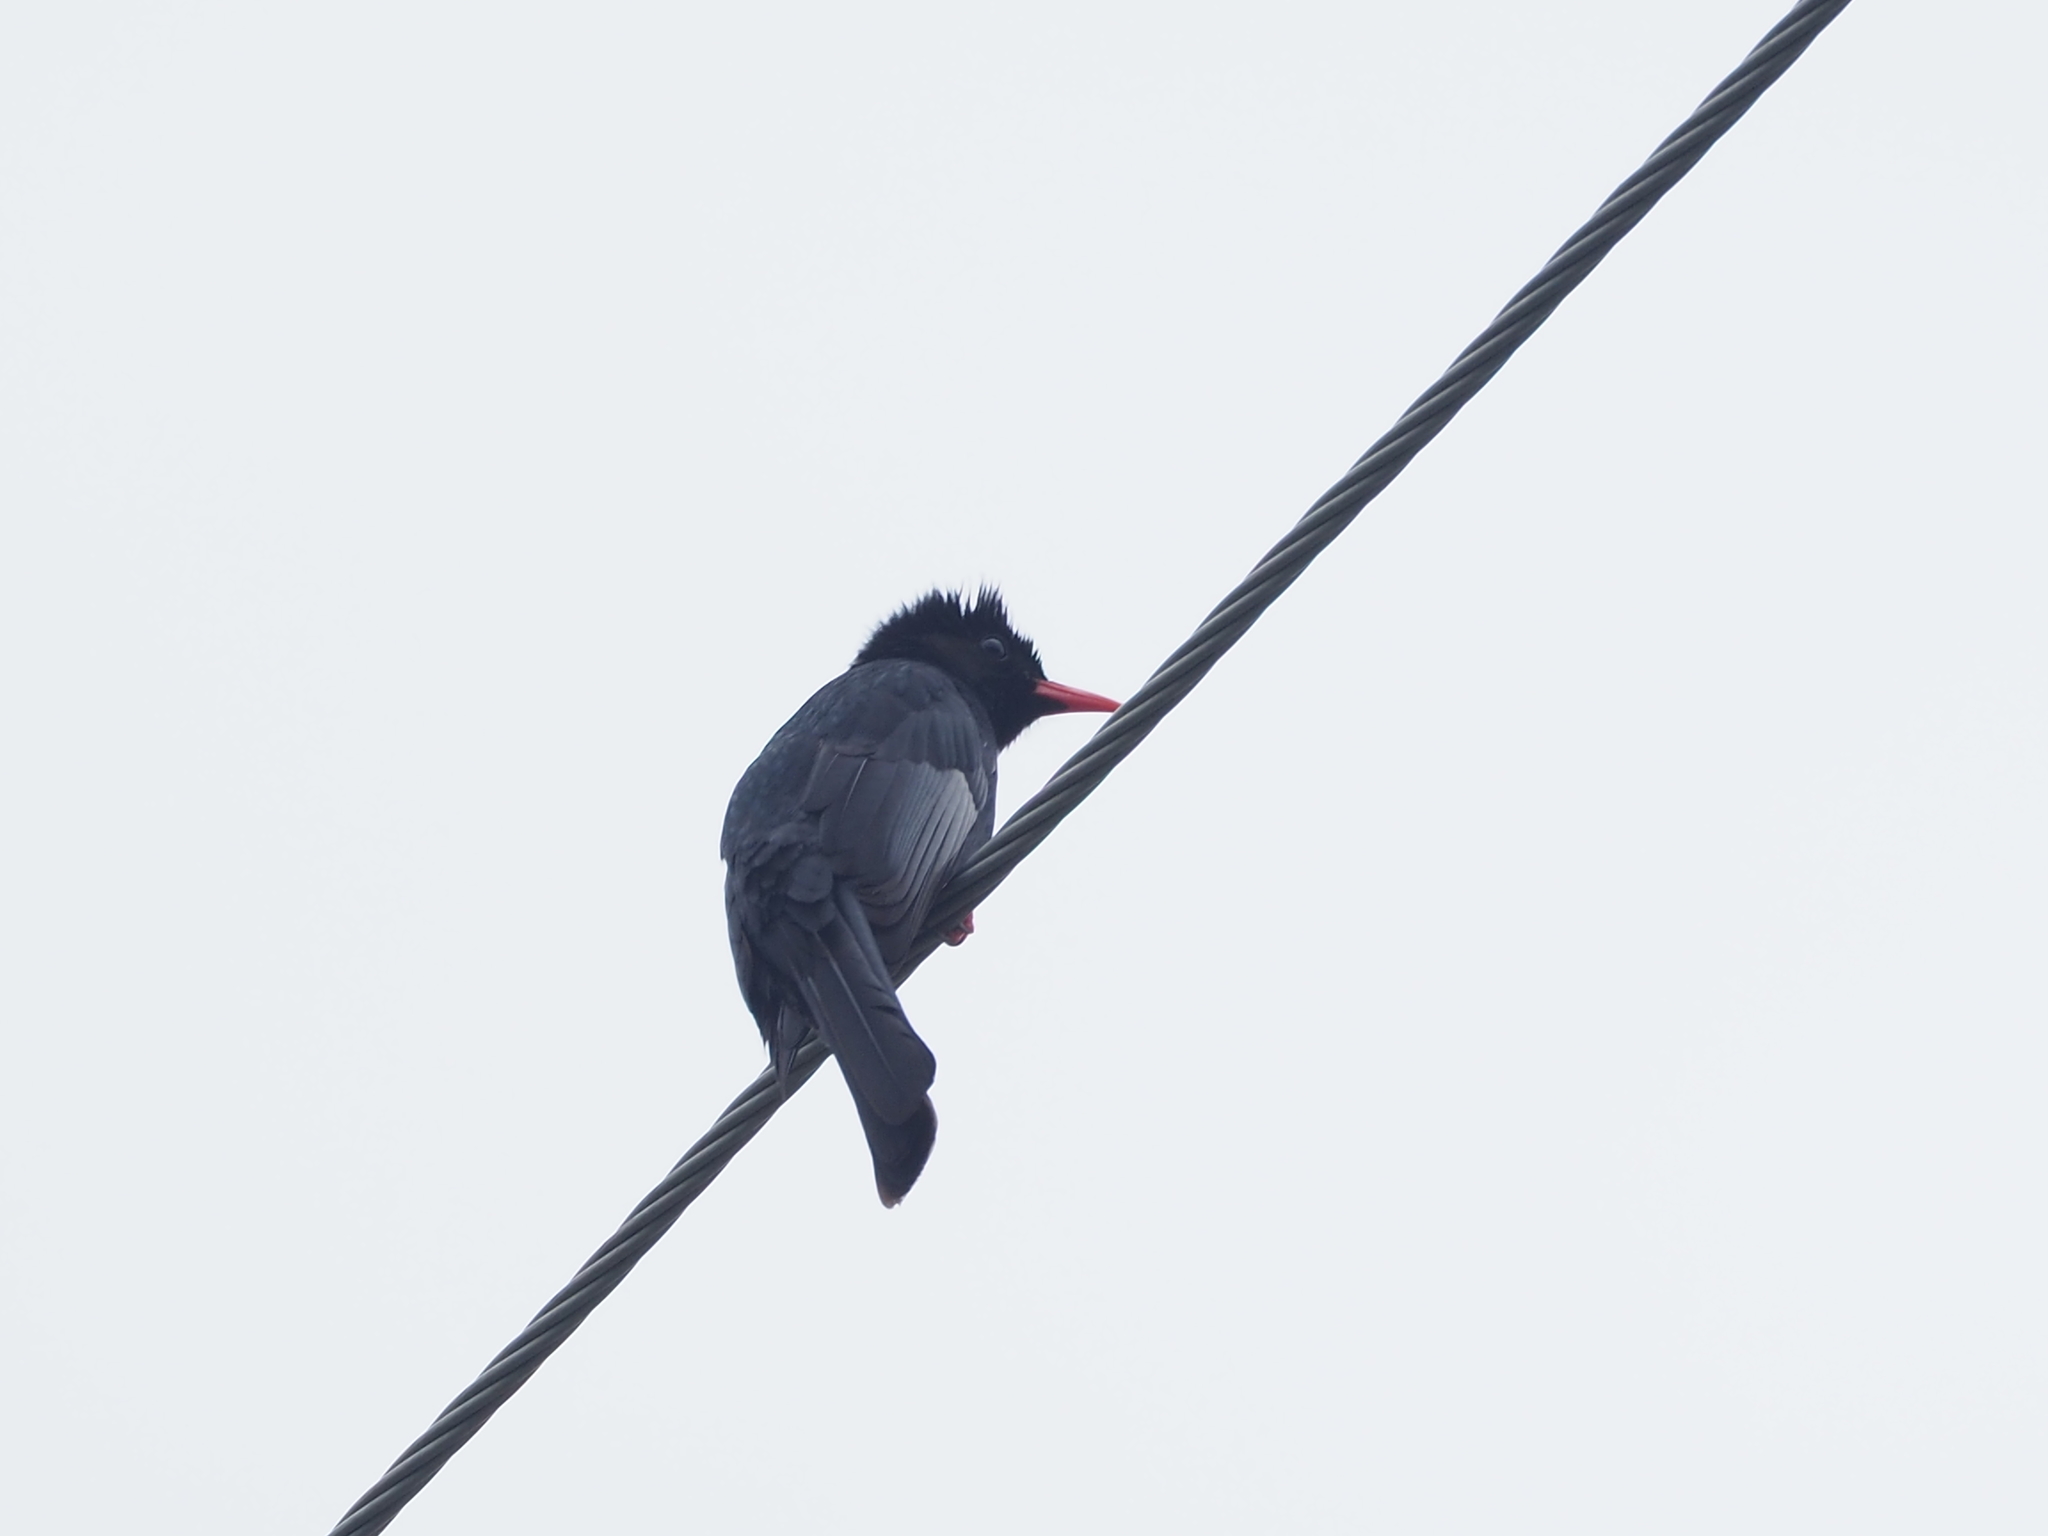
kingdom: Animalia
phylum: Chordata
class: Aves
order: Passeriformes
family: Pycnonotidae
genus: Hypsipetes
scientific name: Hypsipetes leucocephalus
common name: Black bulbul
